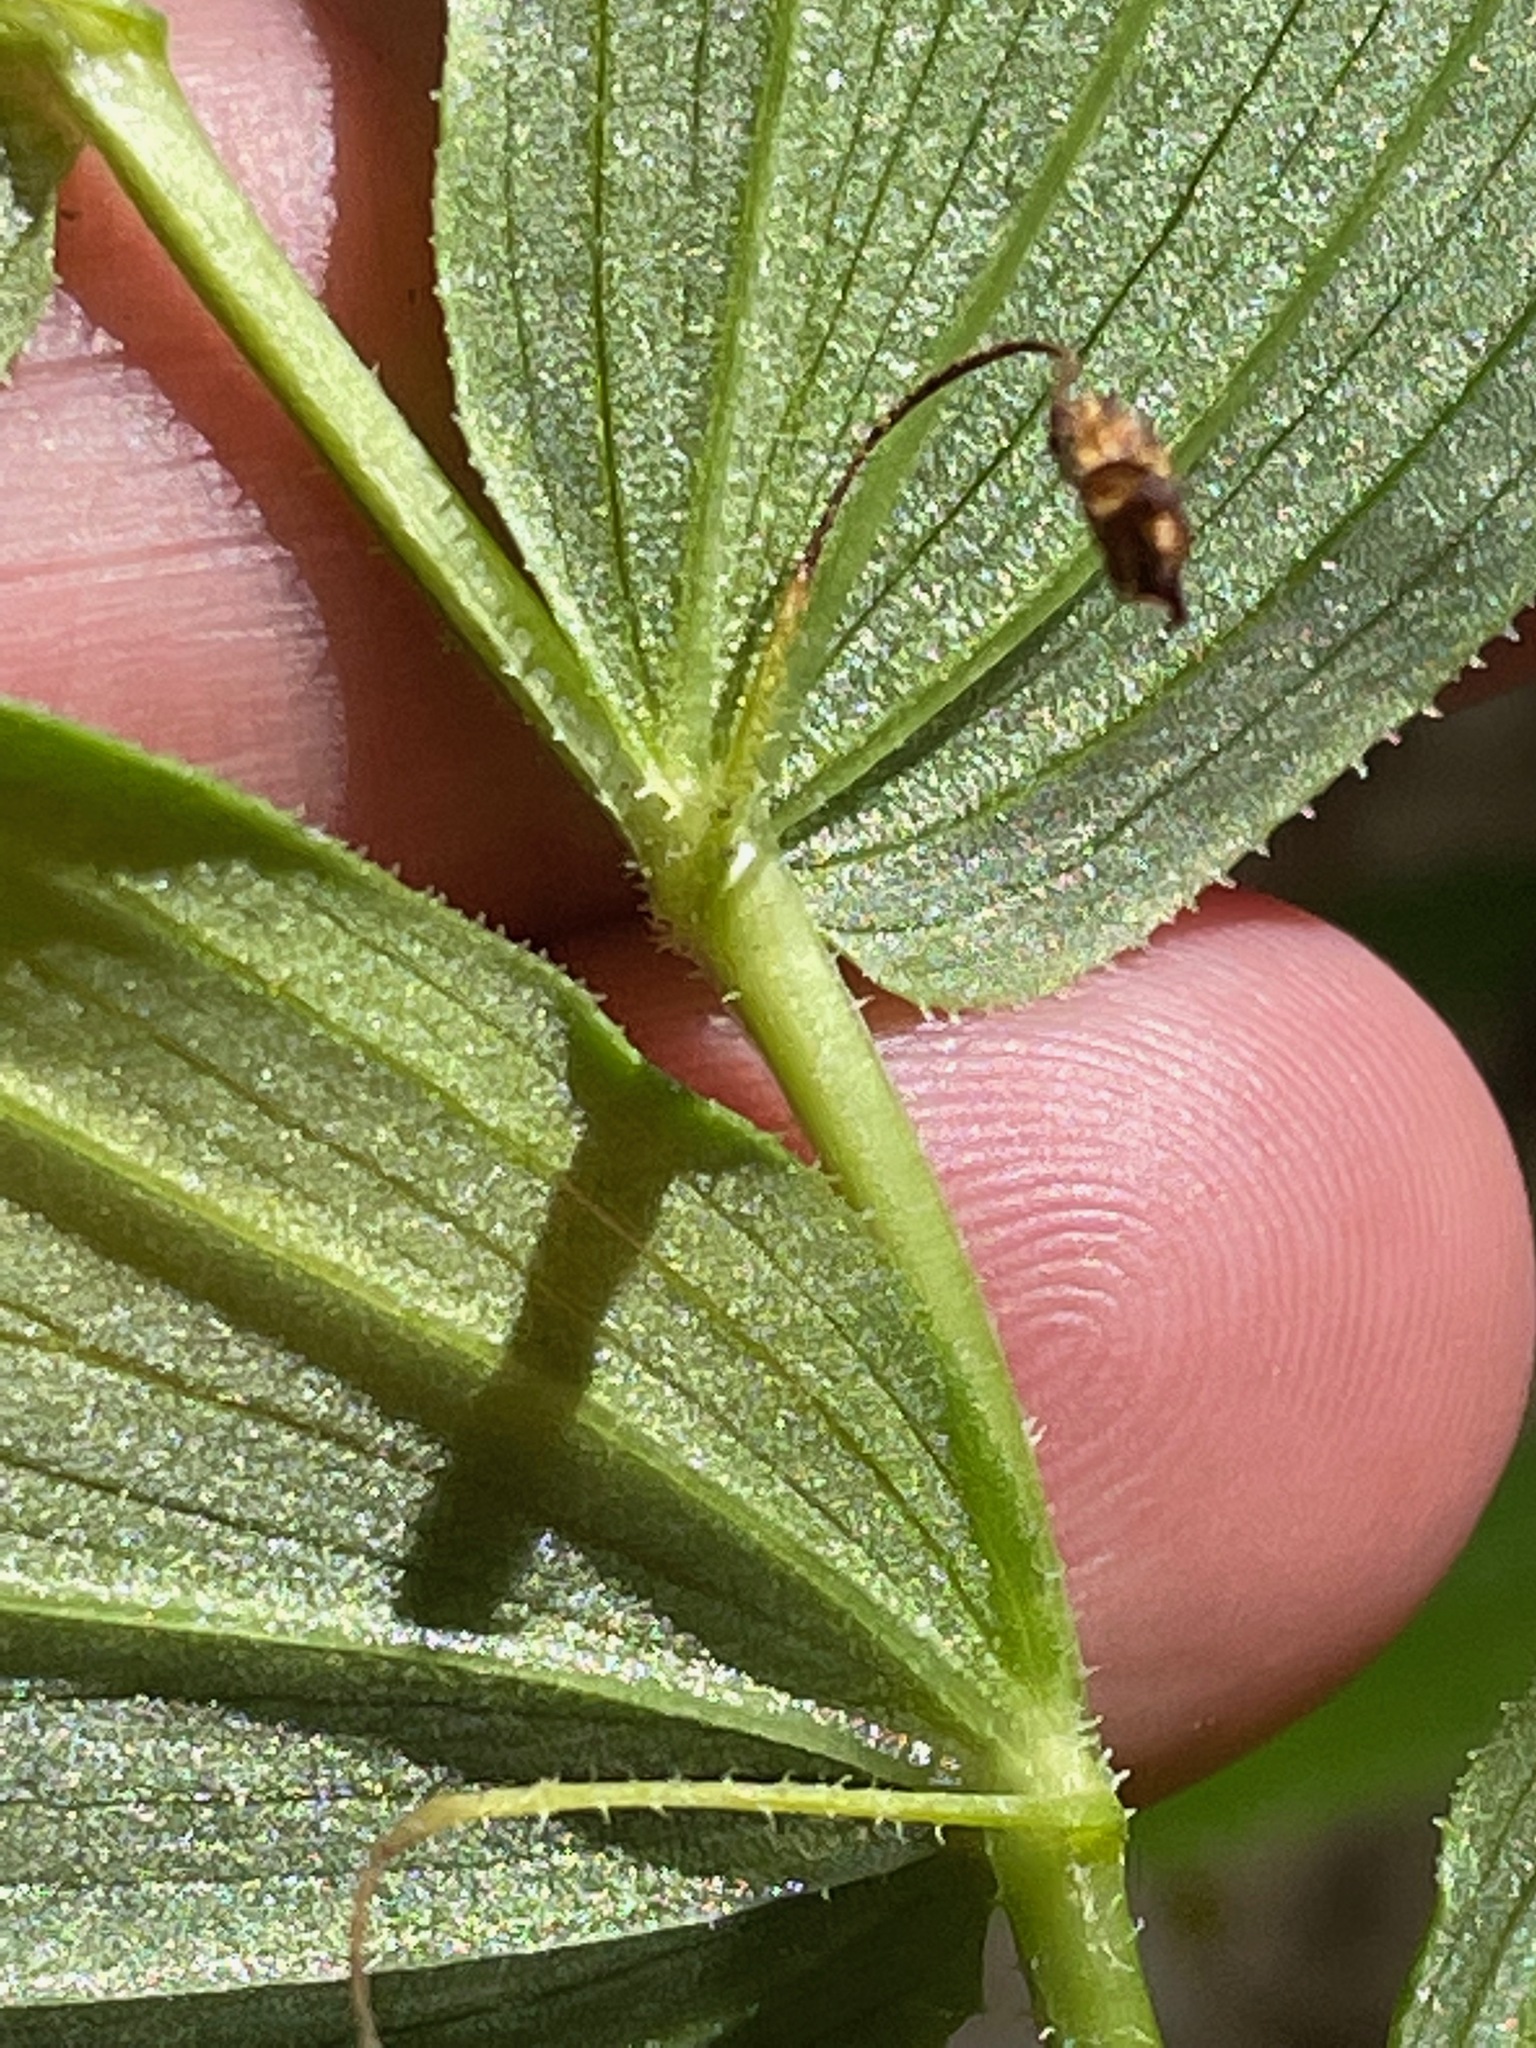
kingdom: Plantae
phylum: Tracheophyta
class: Liliopsida
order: Liliales
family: Liliaceae
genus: Streptopus
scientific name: Streptopus lanceolatus
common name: Rose mandarin
